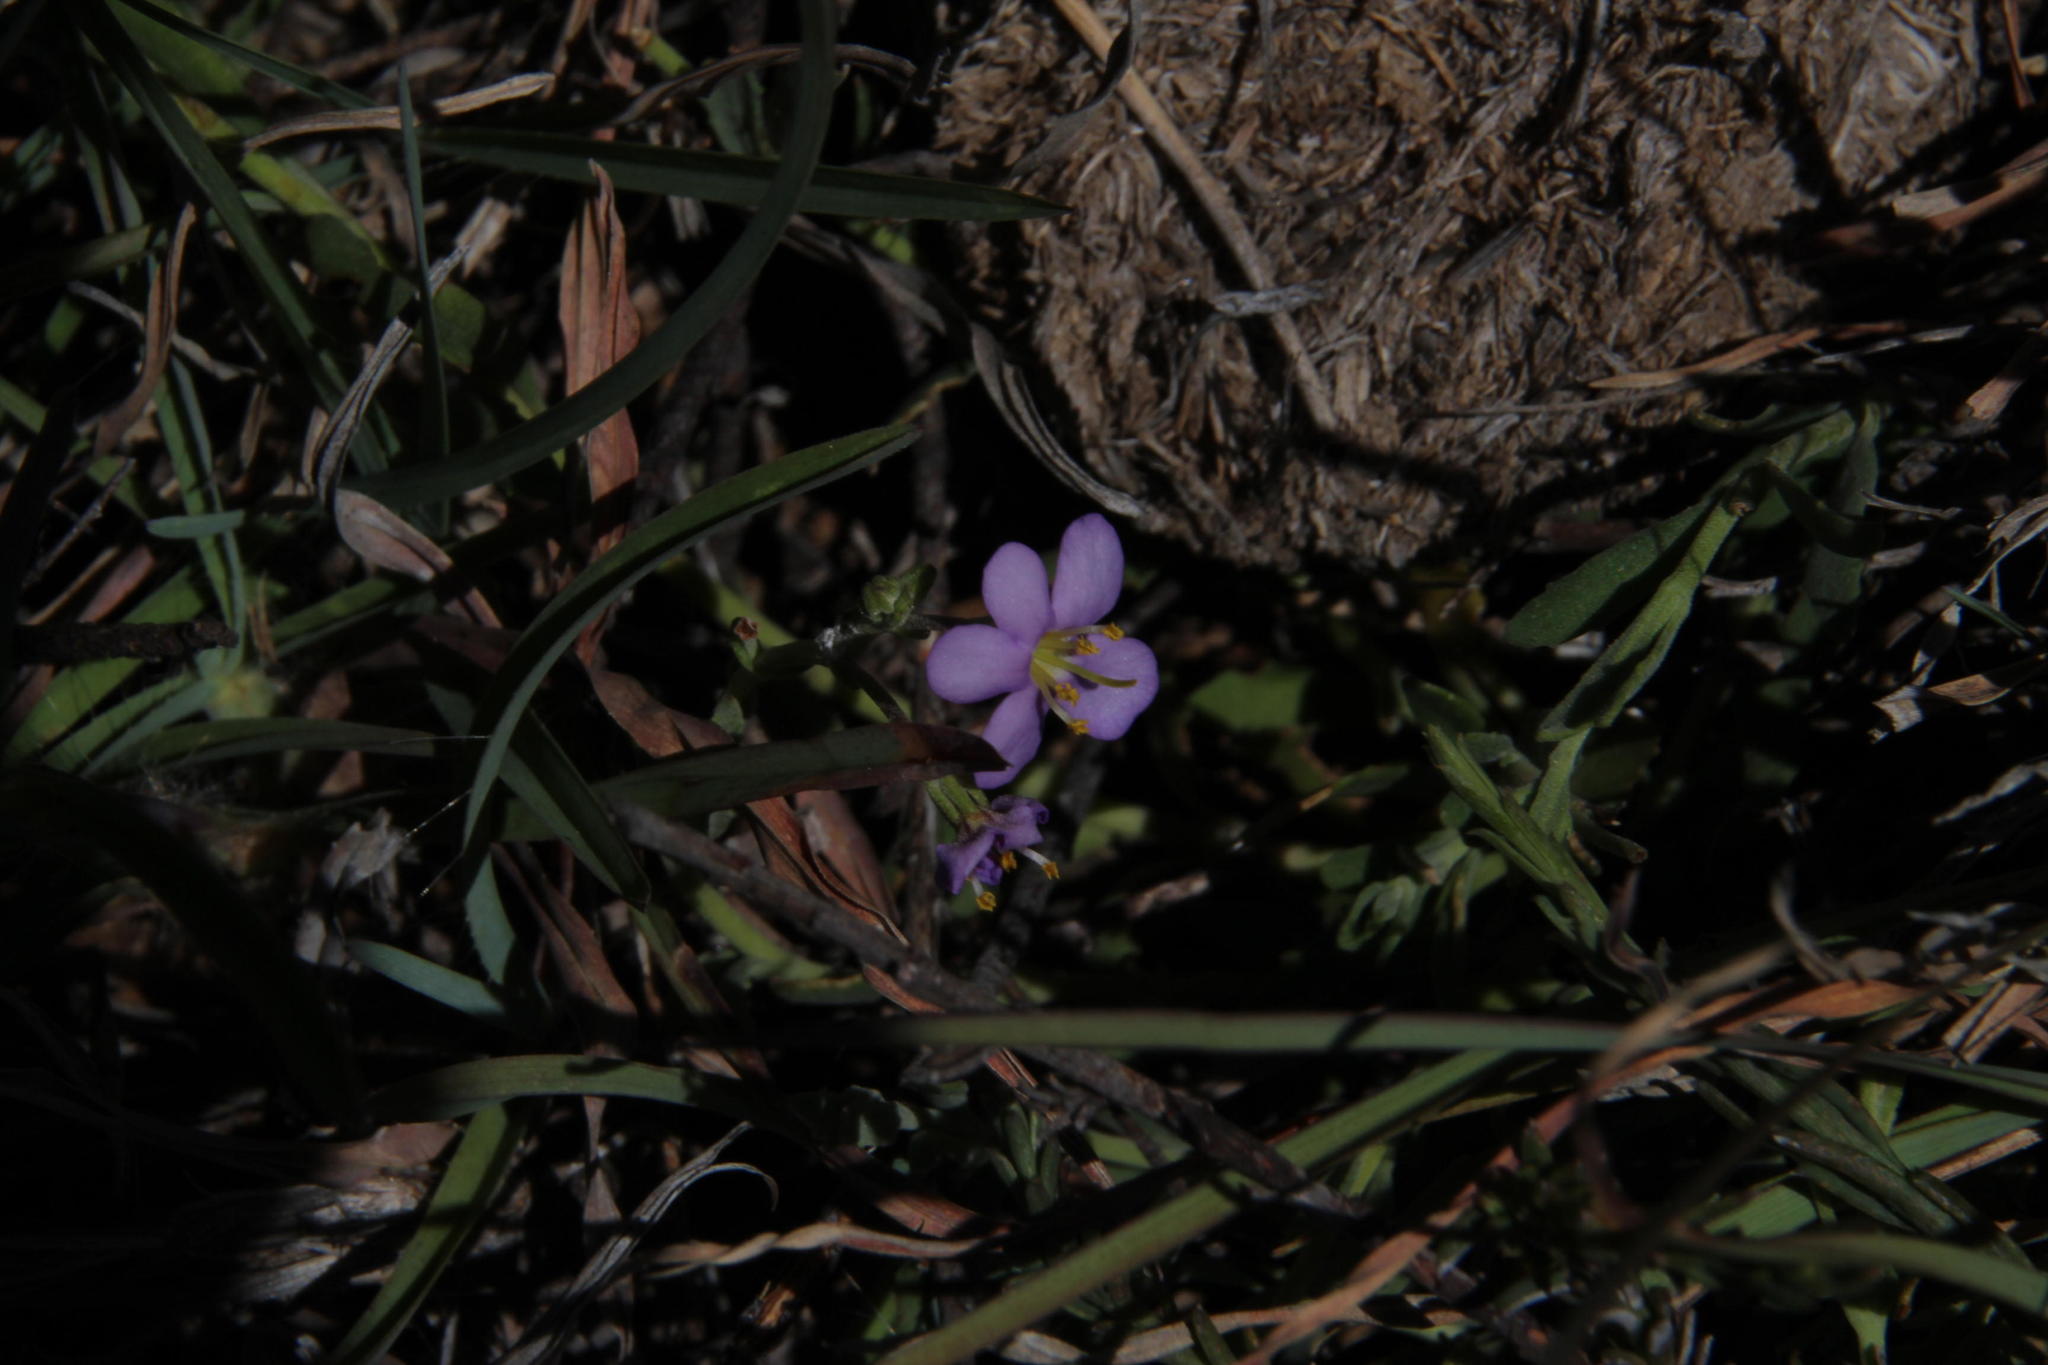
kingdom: Plantae
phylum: Tracheophyta
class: Magnoliopsida
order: Lamiales
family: Scrophulariaceae
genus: Chaenostoma
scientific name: Chaenostoma halimifolium
